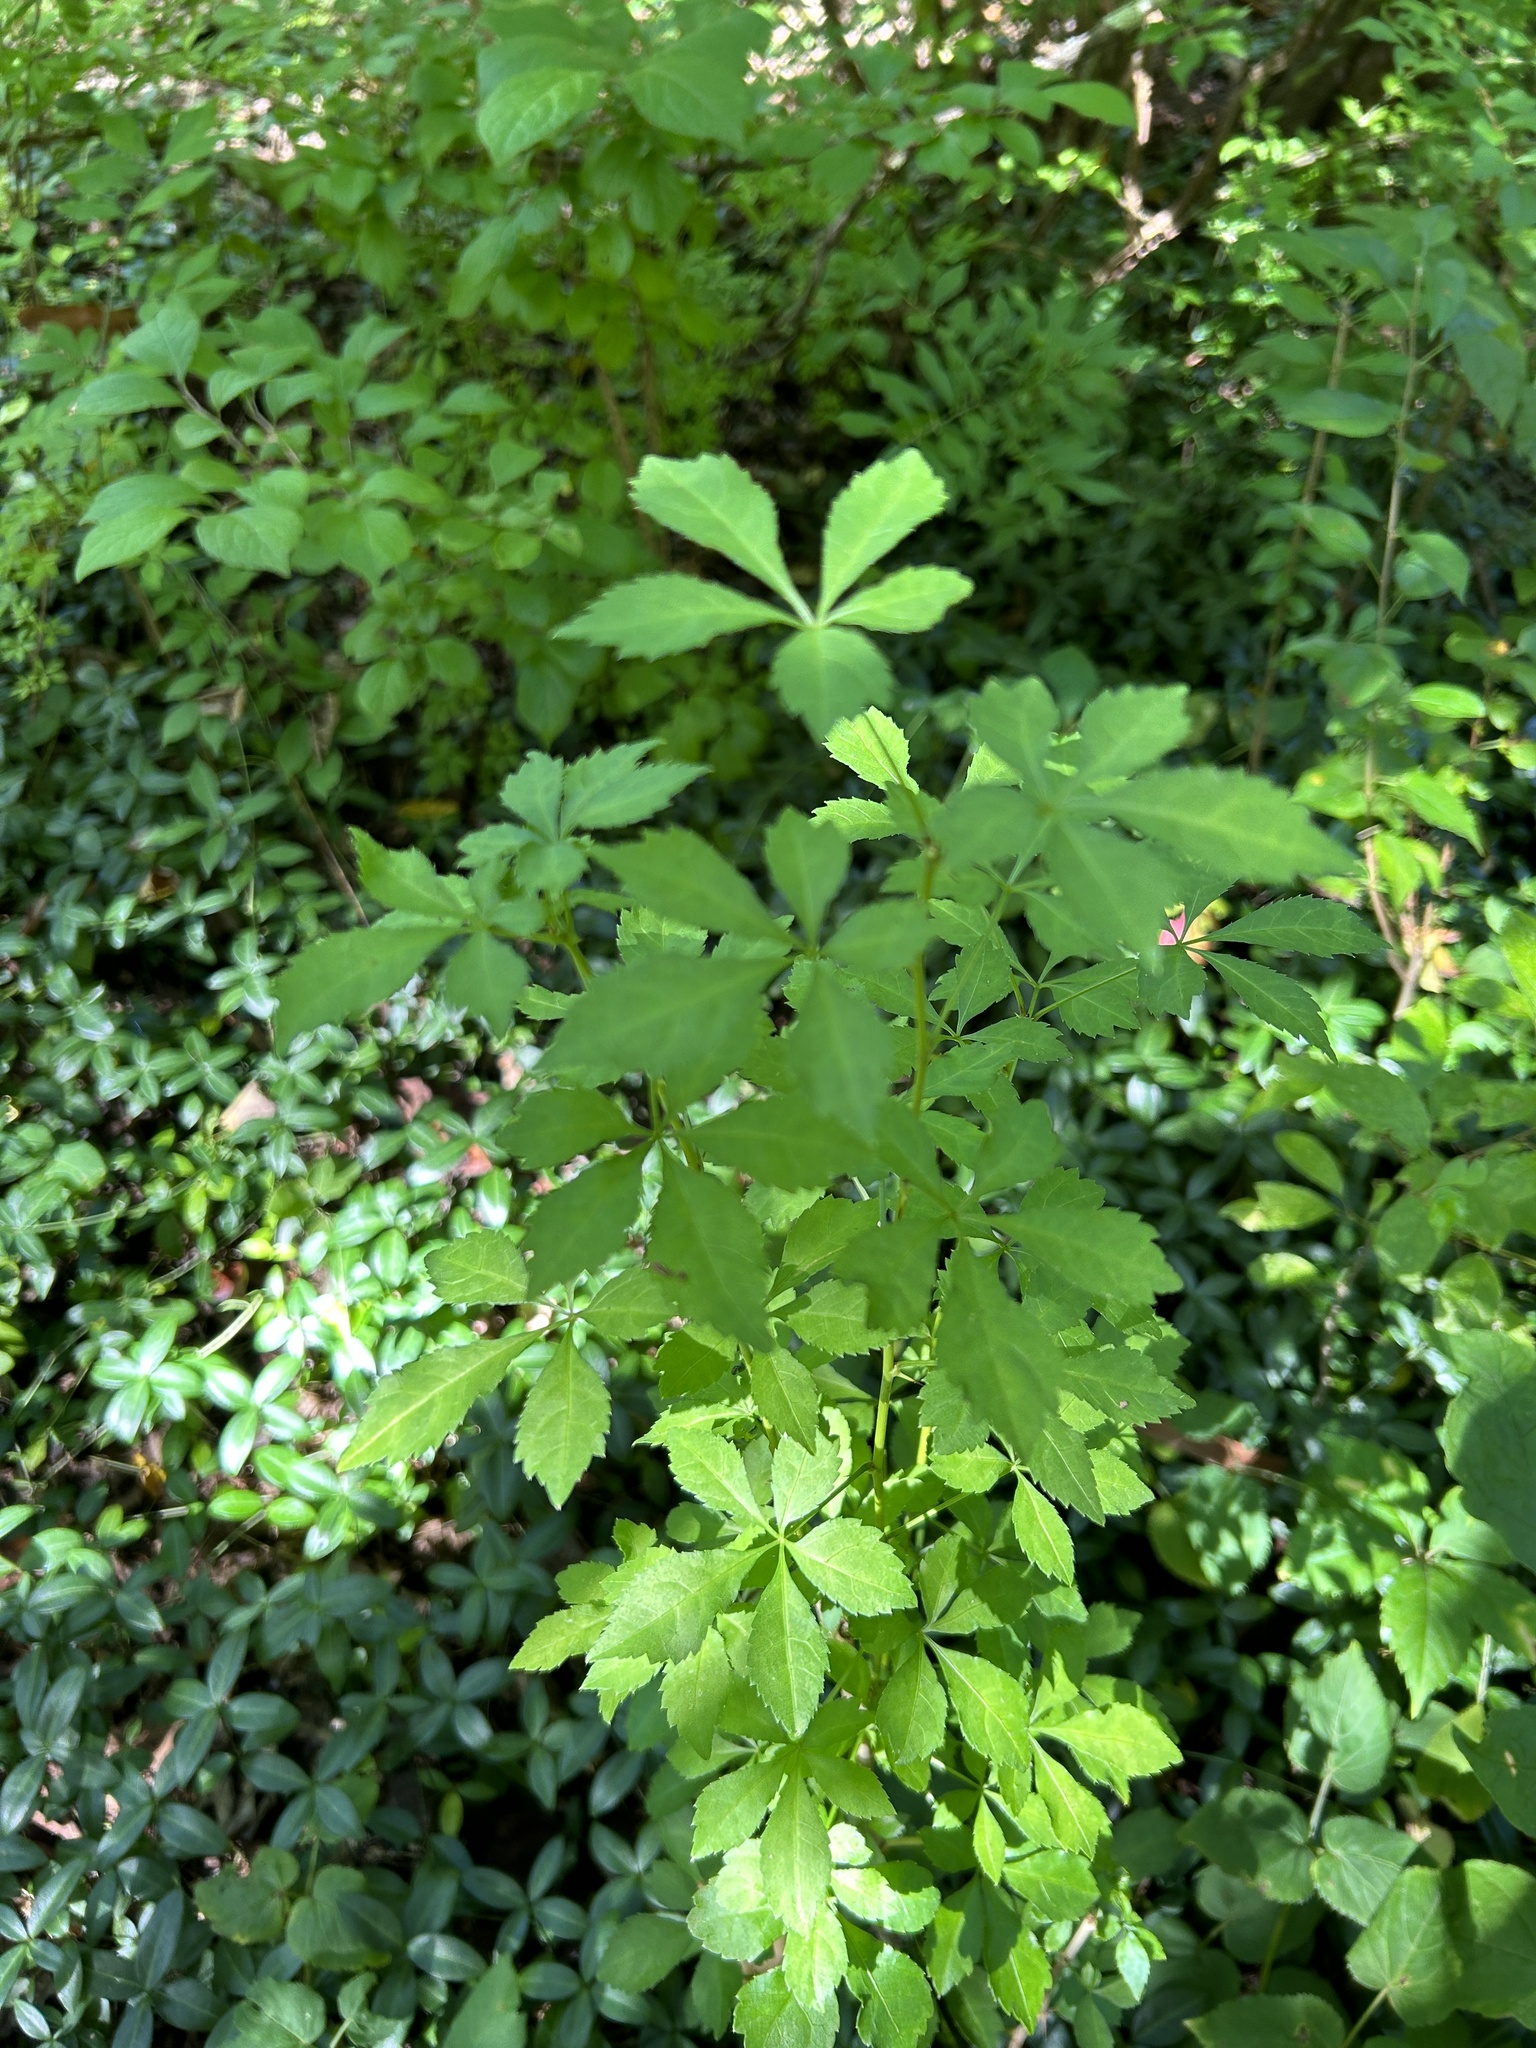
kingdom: Plantae
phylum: Tracheophyta
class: Magnoliopsida
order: Apiales
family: Araliaceae
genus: Eleutherococcus
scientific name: Eleutherococcus sieboldianus
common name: Ginseng
